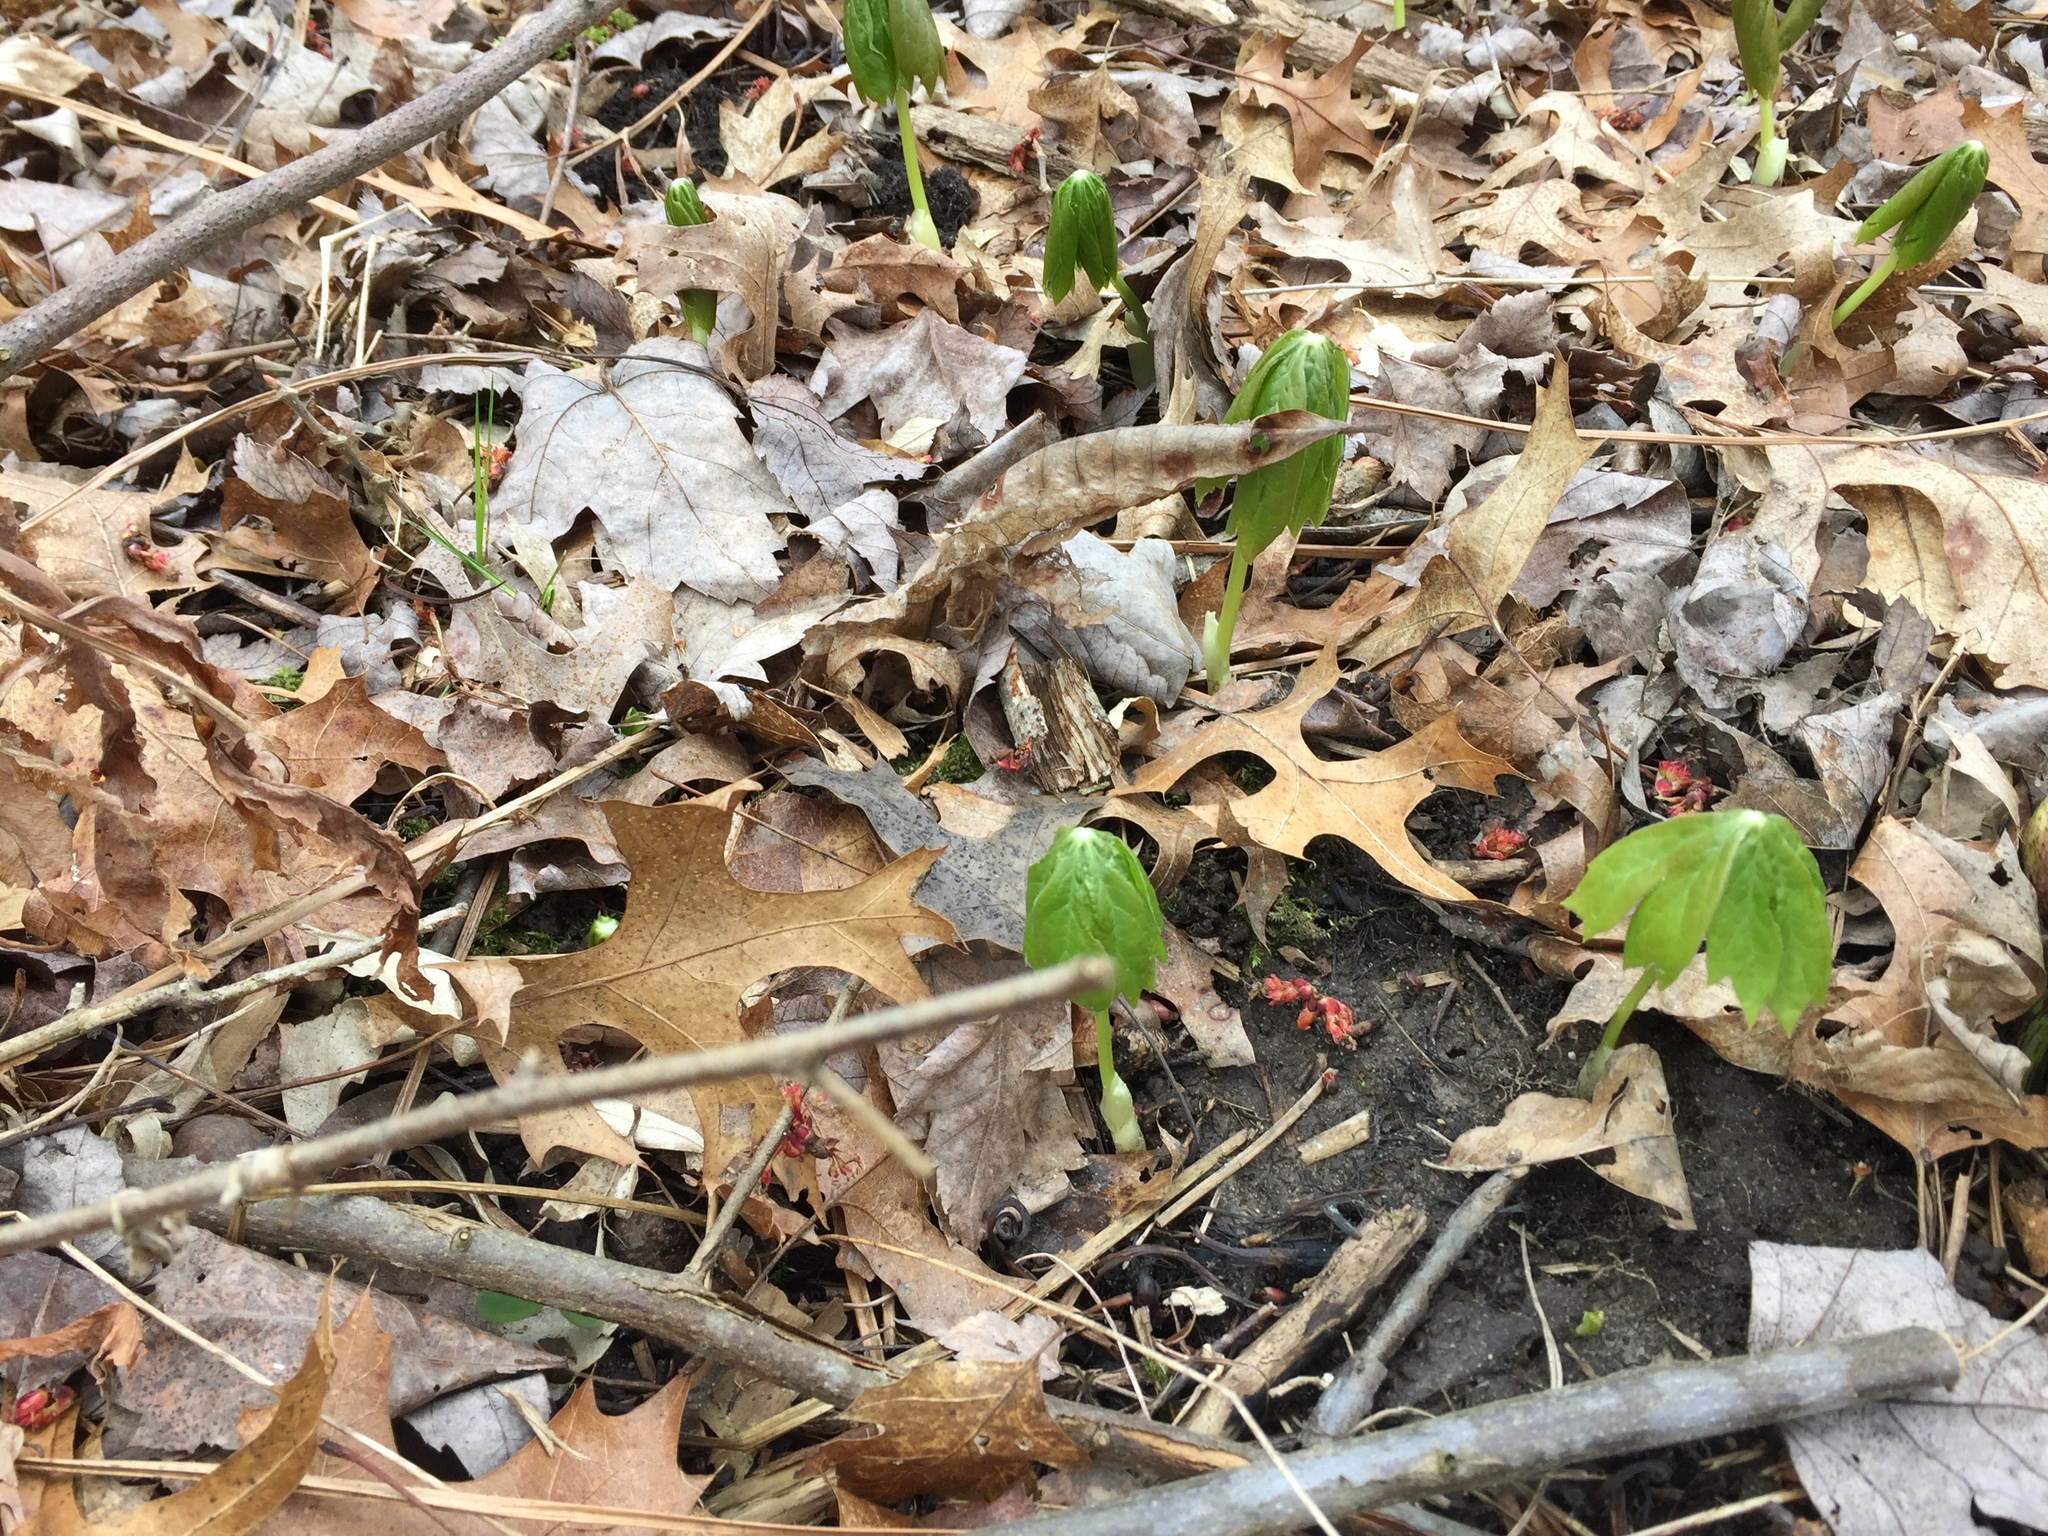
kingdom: Plantae
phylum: Tracheophyta
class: Magnoliopsida
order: Ranunculales
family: Berberidaceae
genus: Podophyllum
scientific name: Podophyllum peltatum
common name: Wild mandrake
